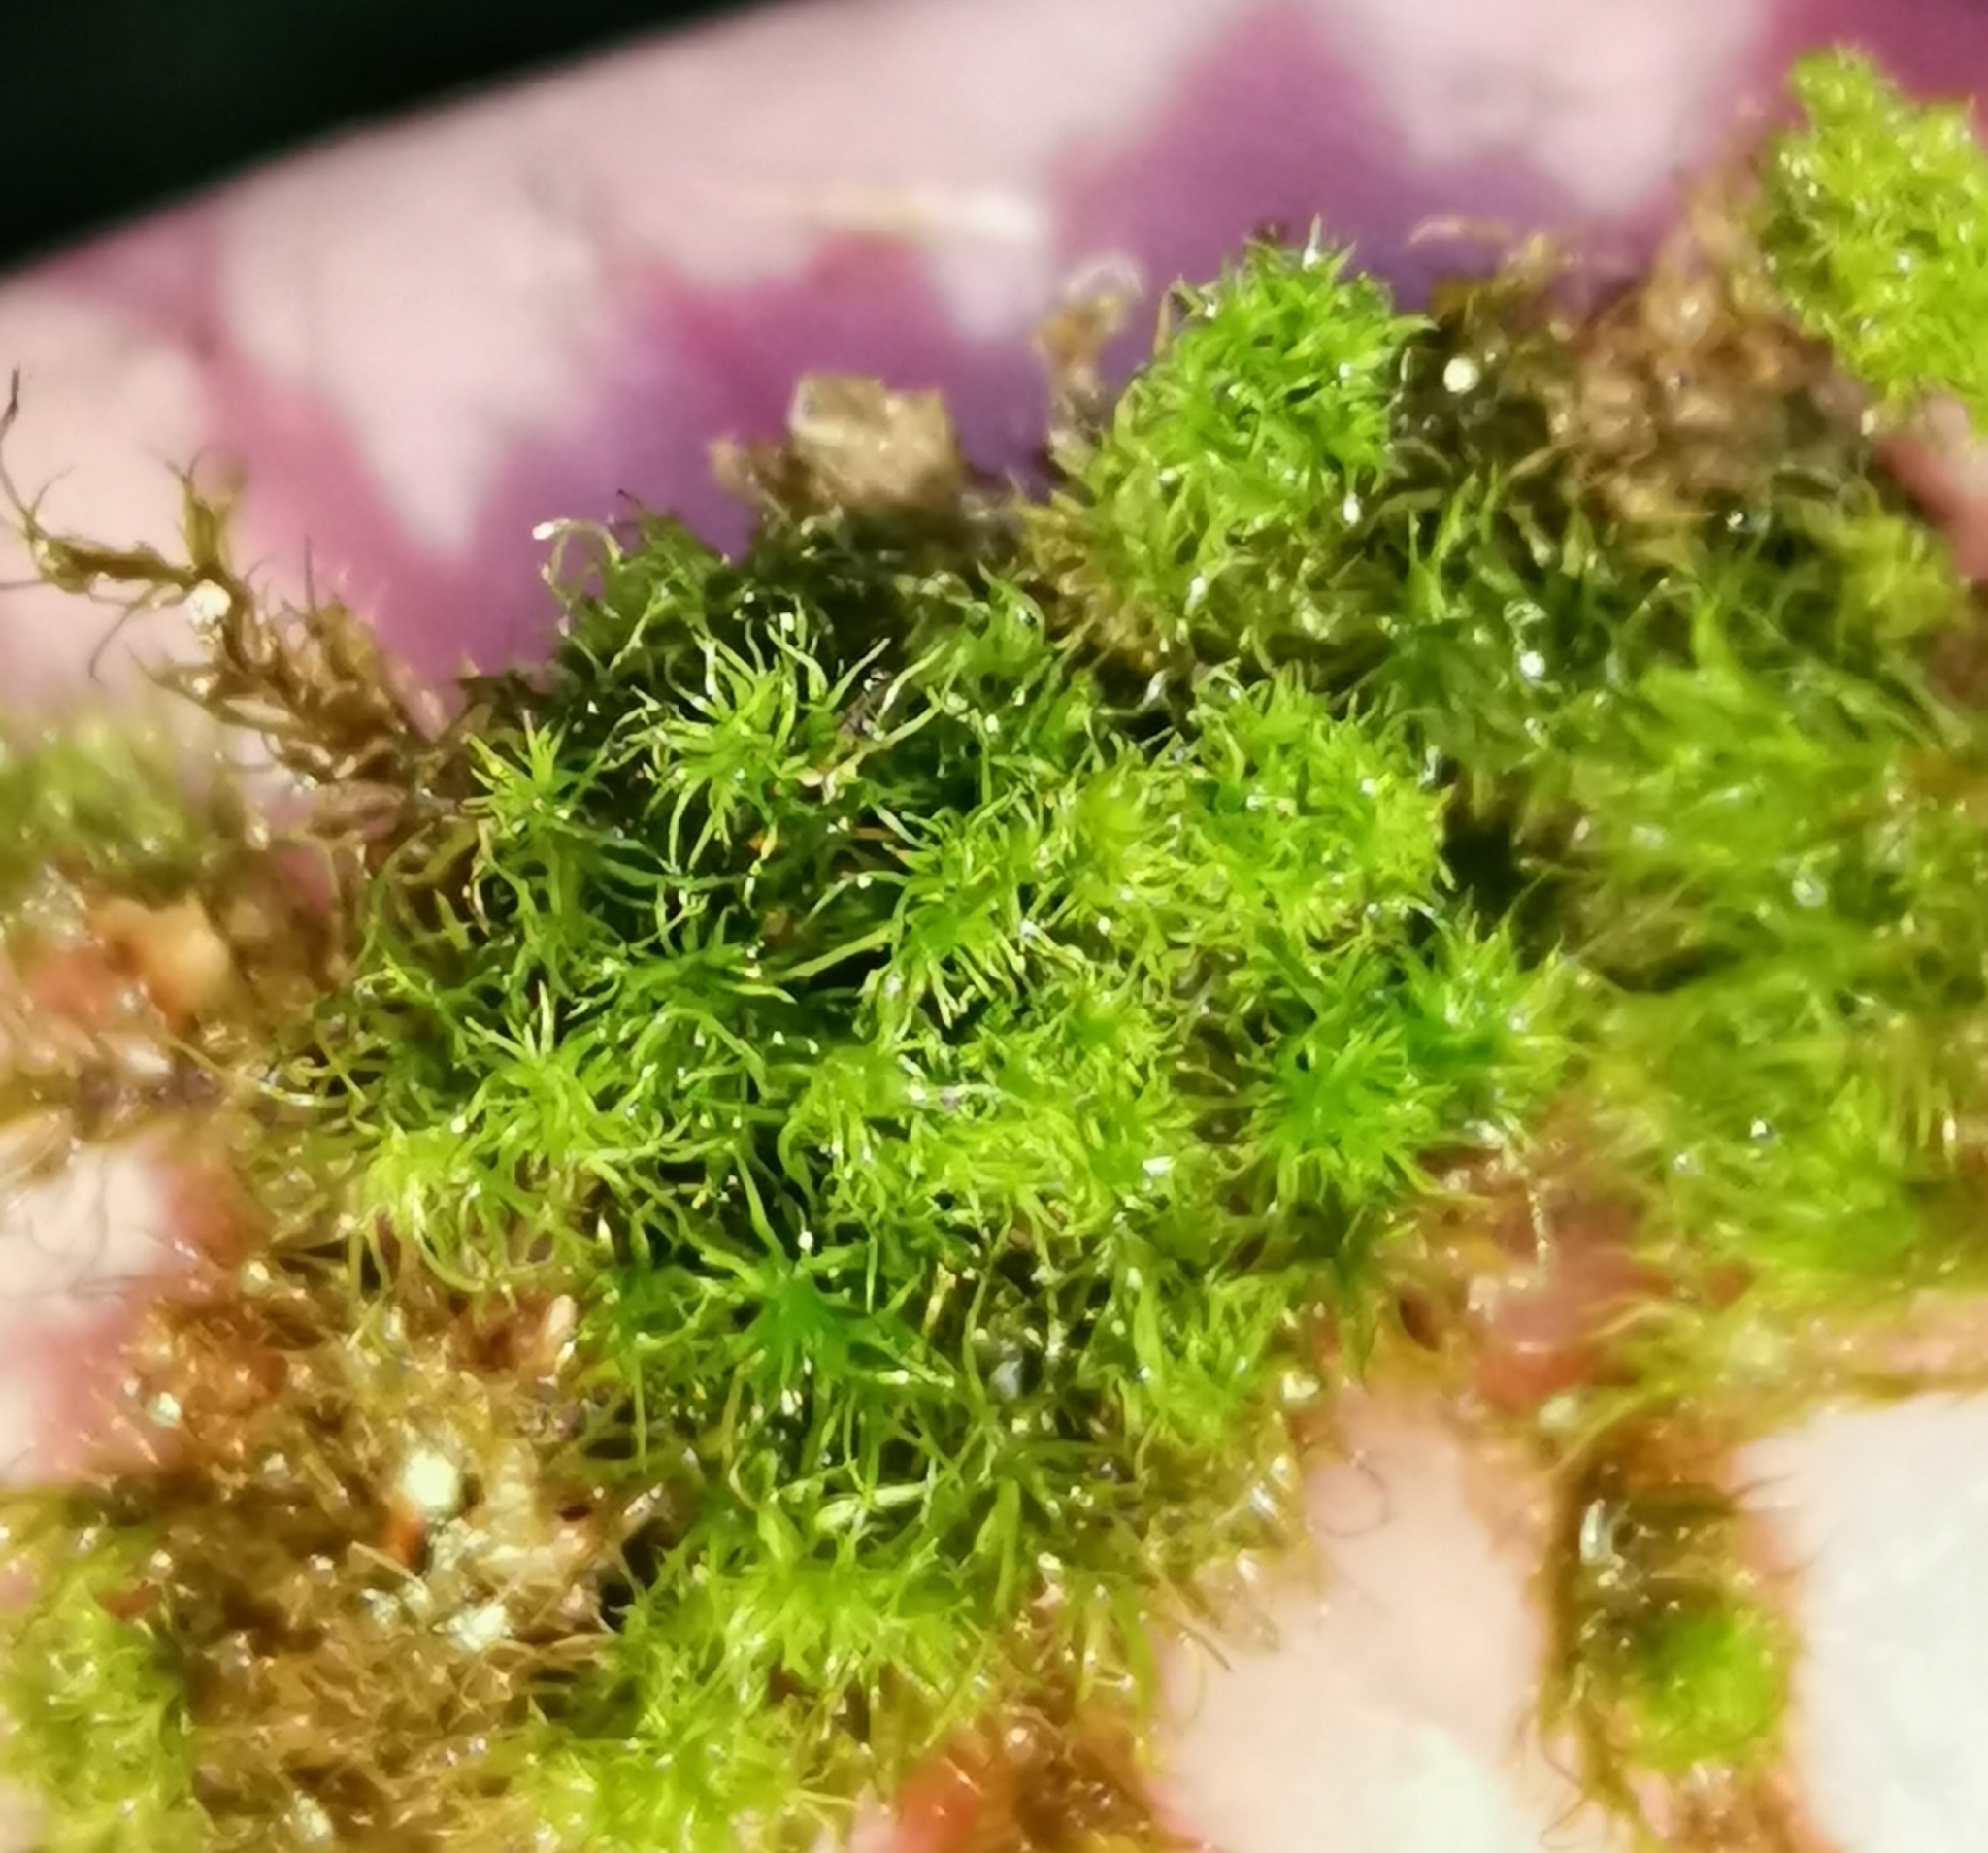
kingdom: Plantae
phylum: Bryophyta
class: Bryopsida
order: Dicranales
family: Dicranaceae
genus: Orthodicranum
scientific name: Orthodicranum montanum
